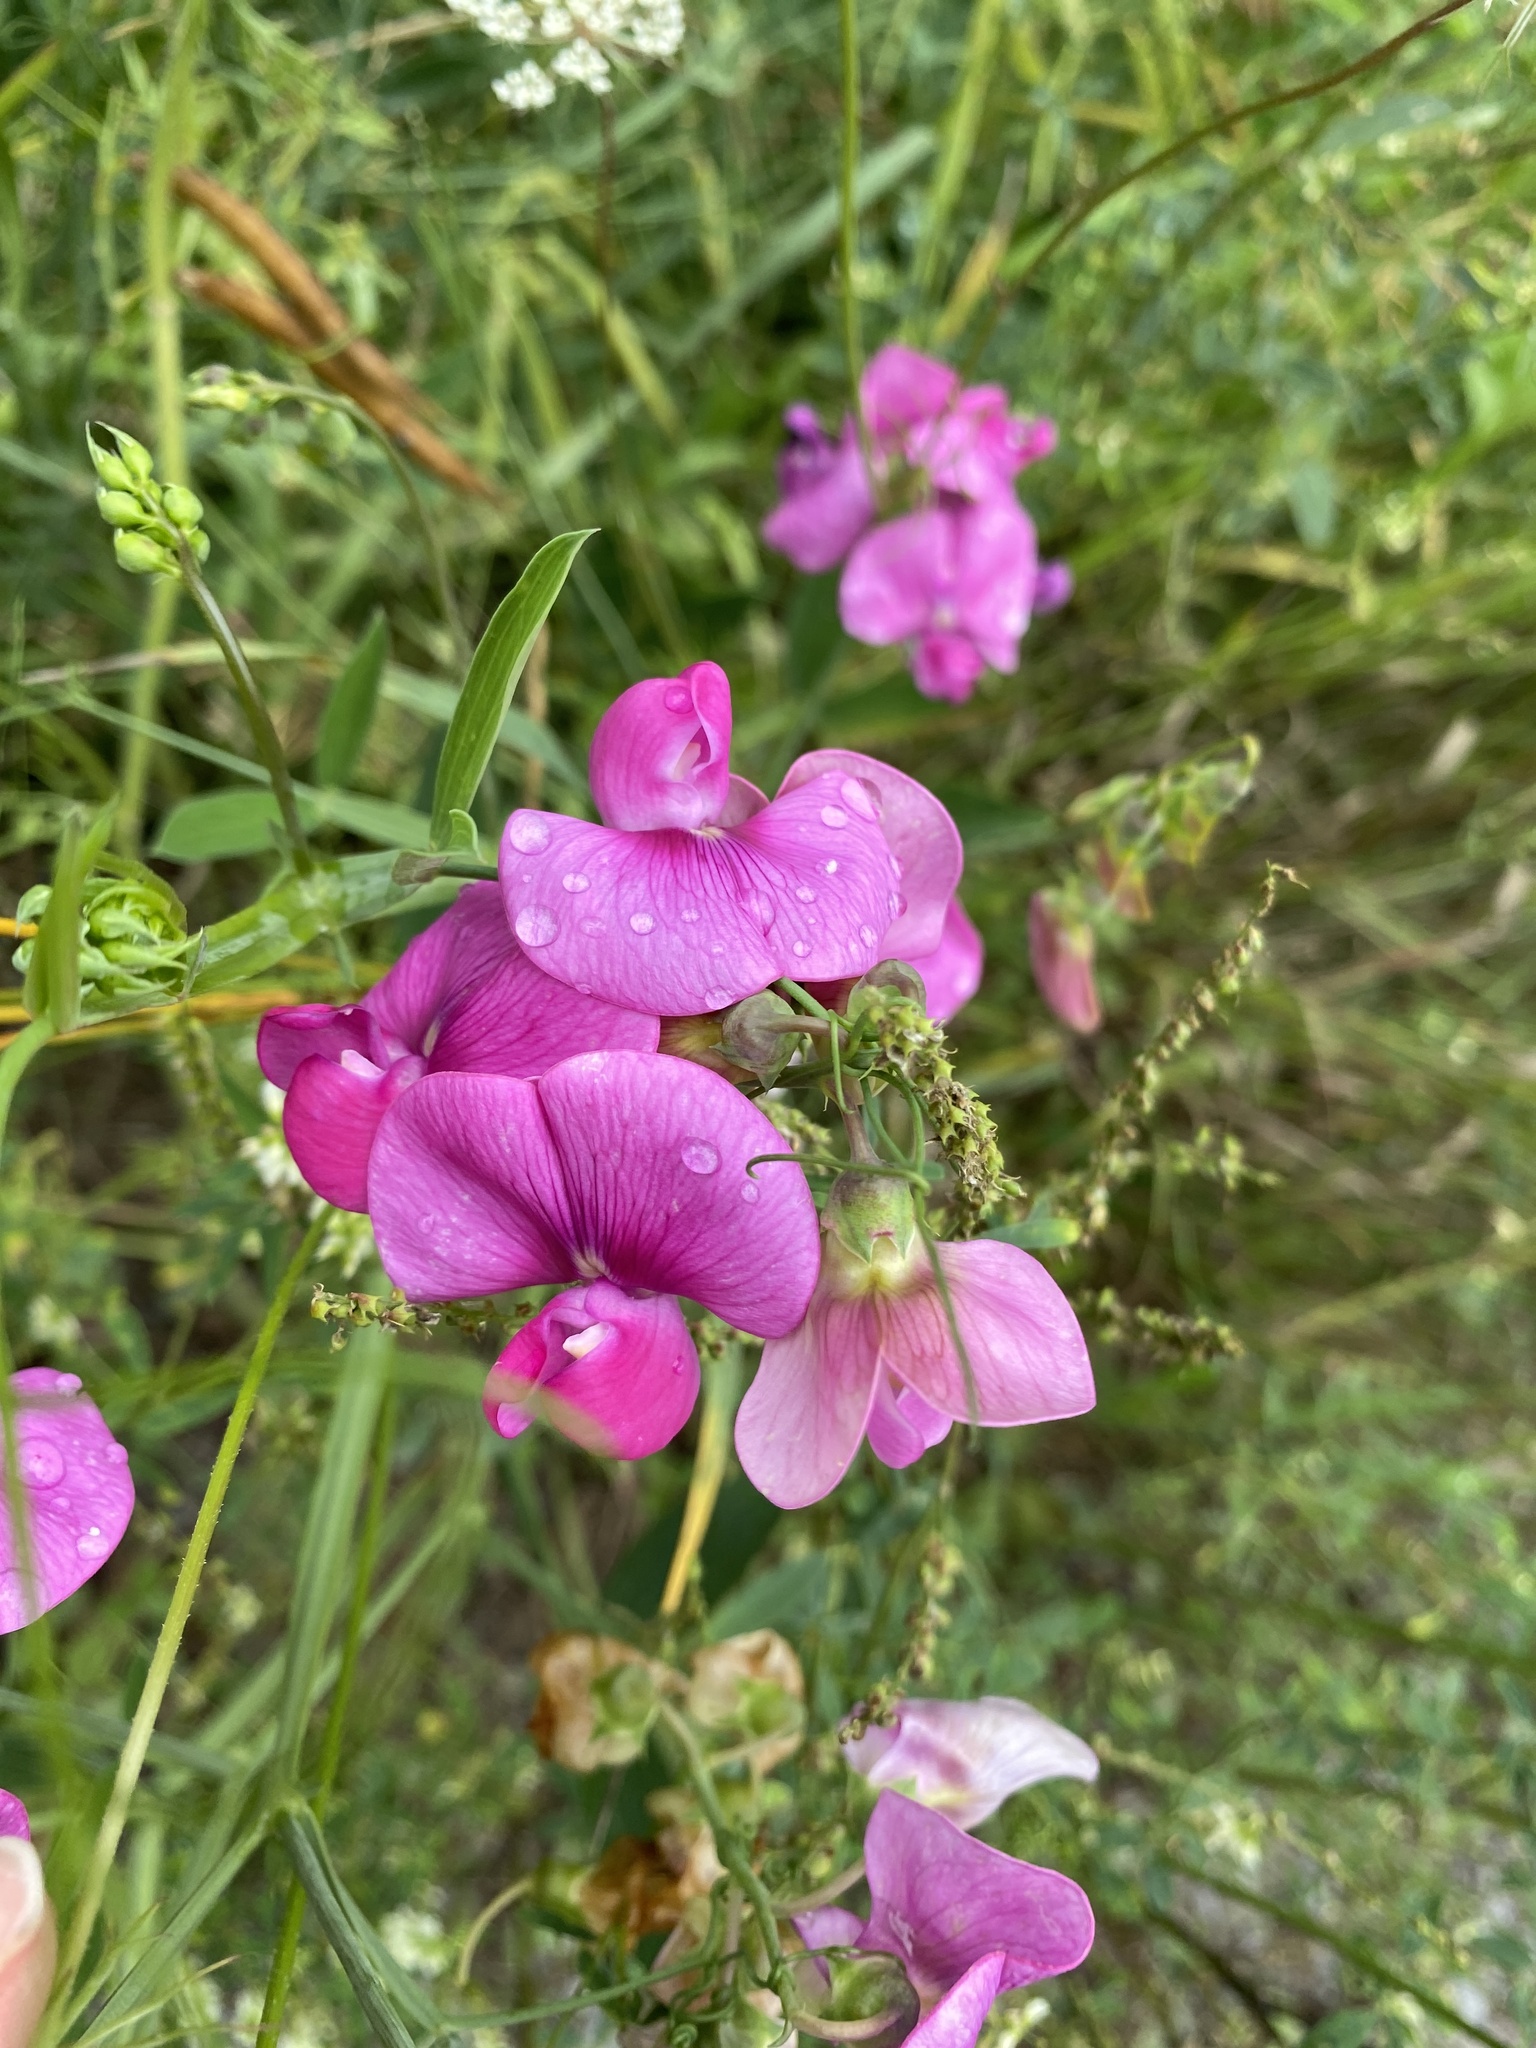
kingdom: Plantae
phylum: Tracheophyta
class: Magnoliopsida
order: Fabales
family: Fabaceae
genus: Lathyrus
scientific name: Lathyrus latifolius
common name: Perennial pea
